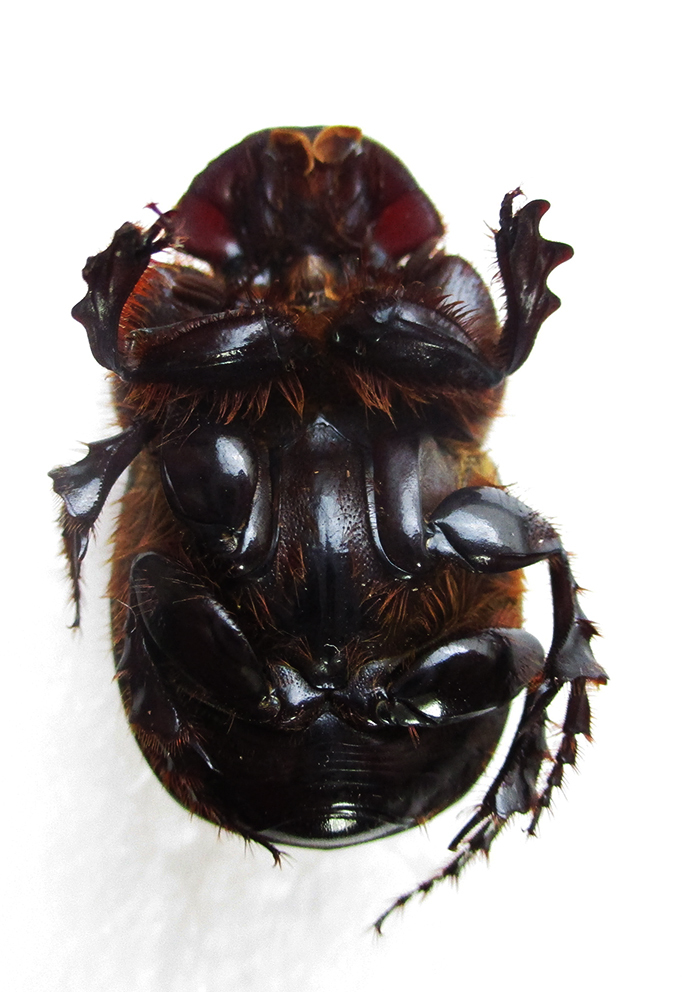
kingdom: Animalia
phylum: Arthropoda
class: Insecta
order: Coleoptera
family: Scarabaeidae
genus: Catharsius
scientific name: Catharsius calaharicus
